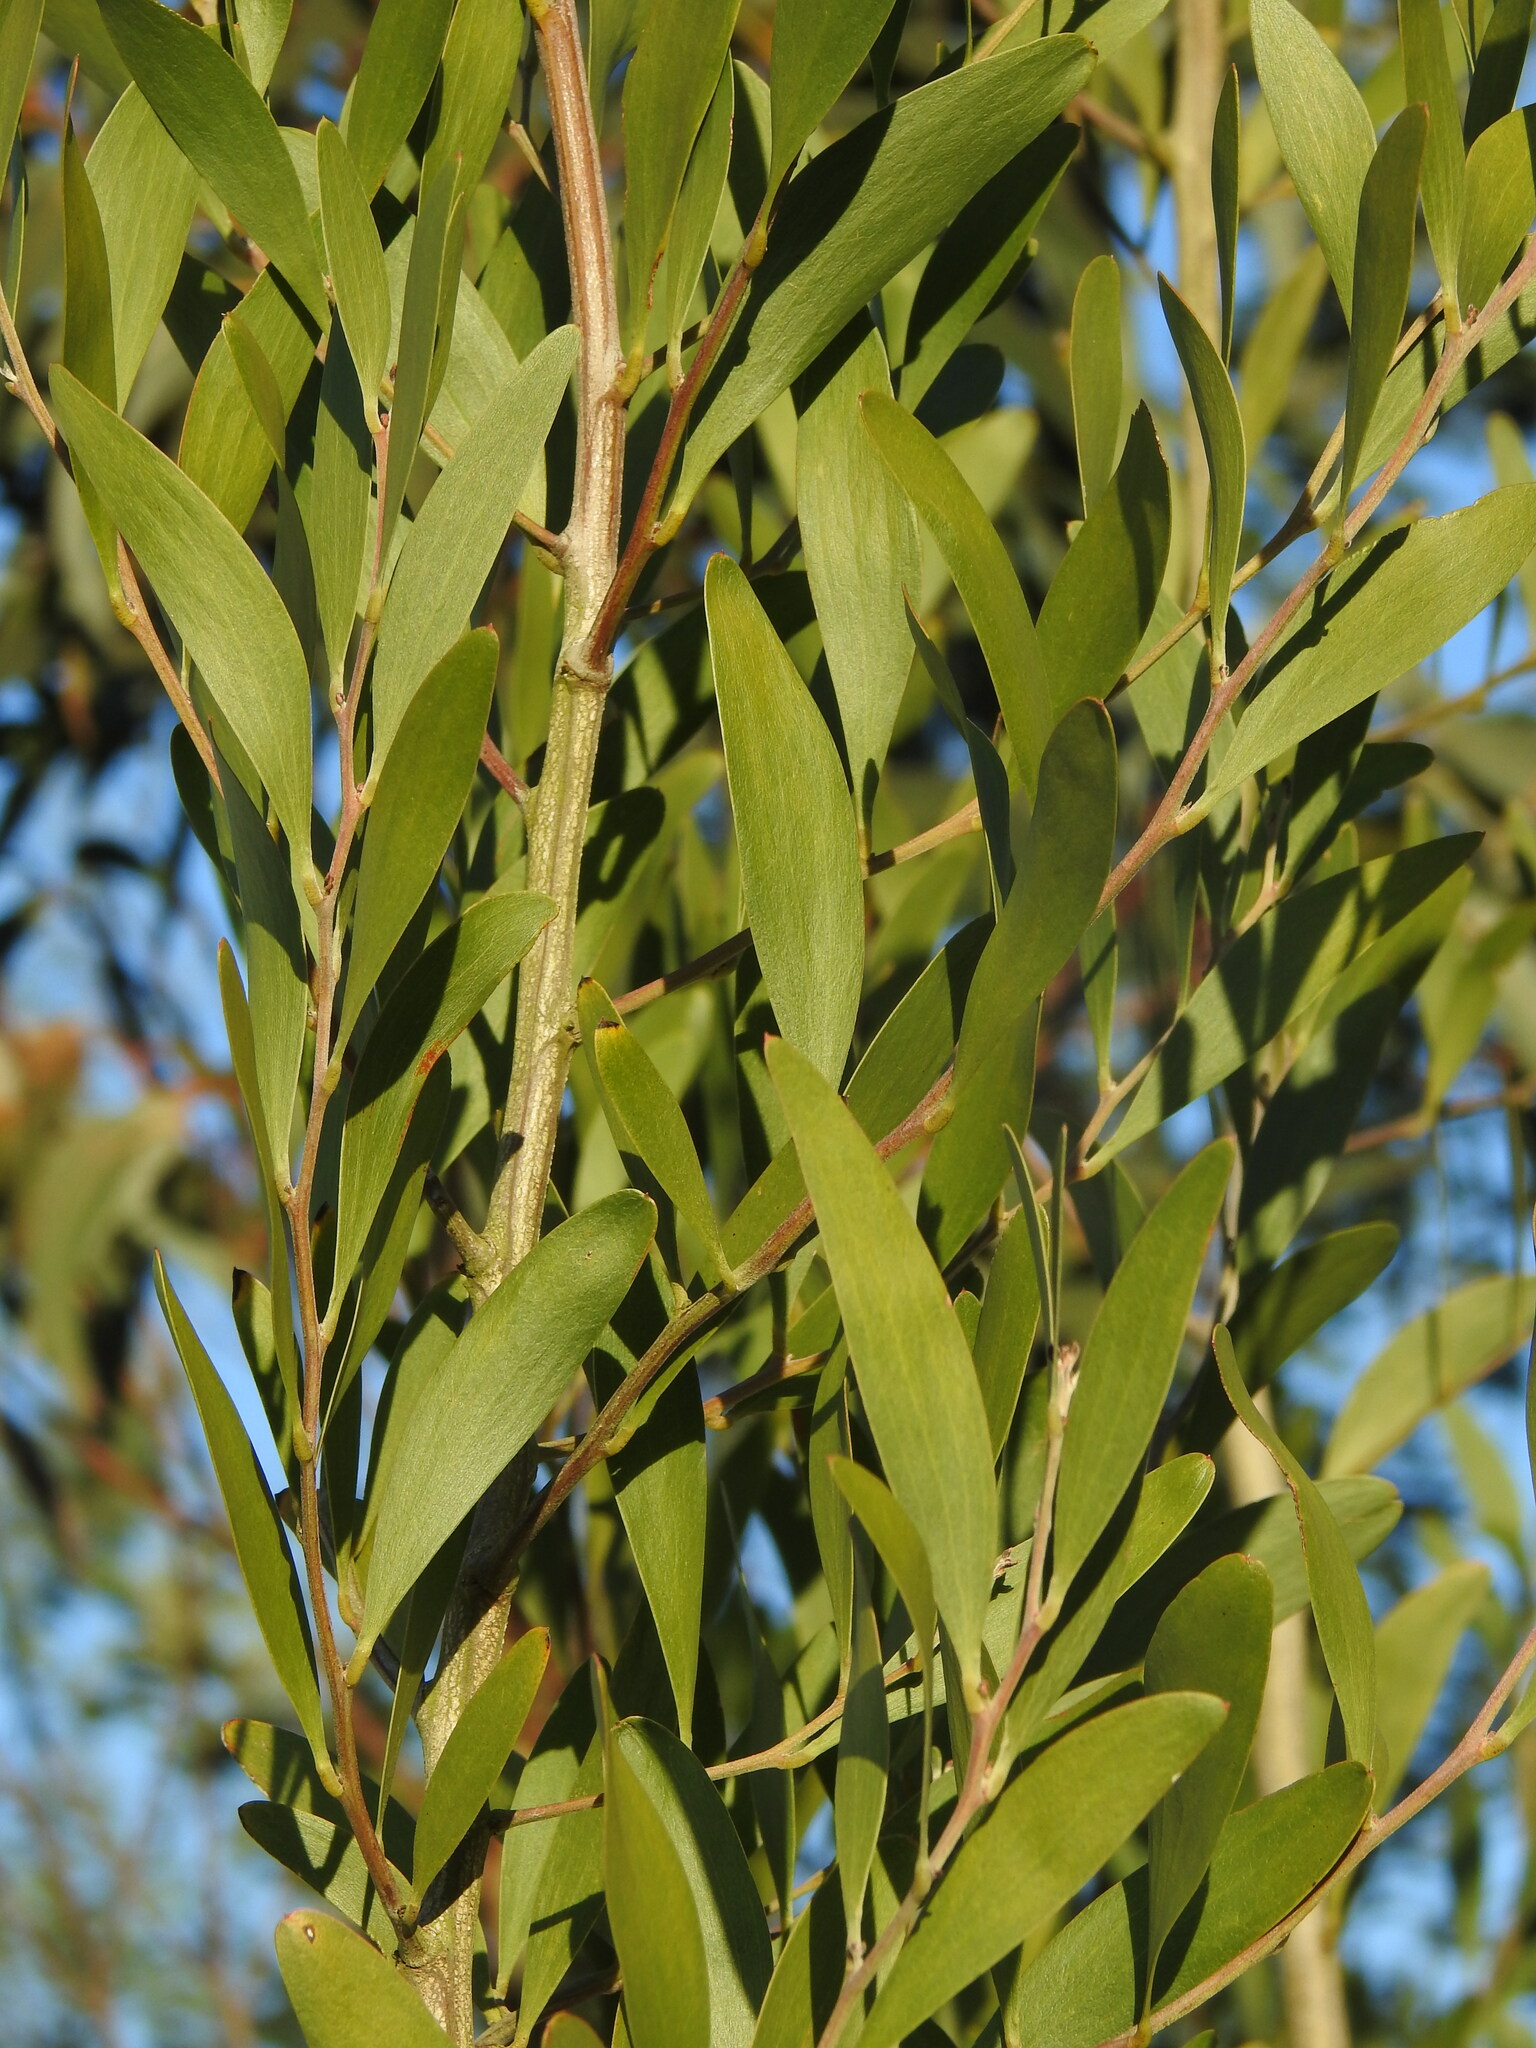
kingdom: Plantae
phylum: Tracheophyta
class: Magnoliopsida
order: Fabales
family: Fabaceae
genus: Acacia
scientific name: Acacia melanoxylon
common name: Blackwood
